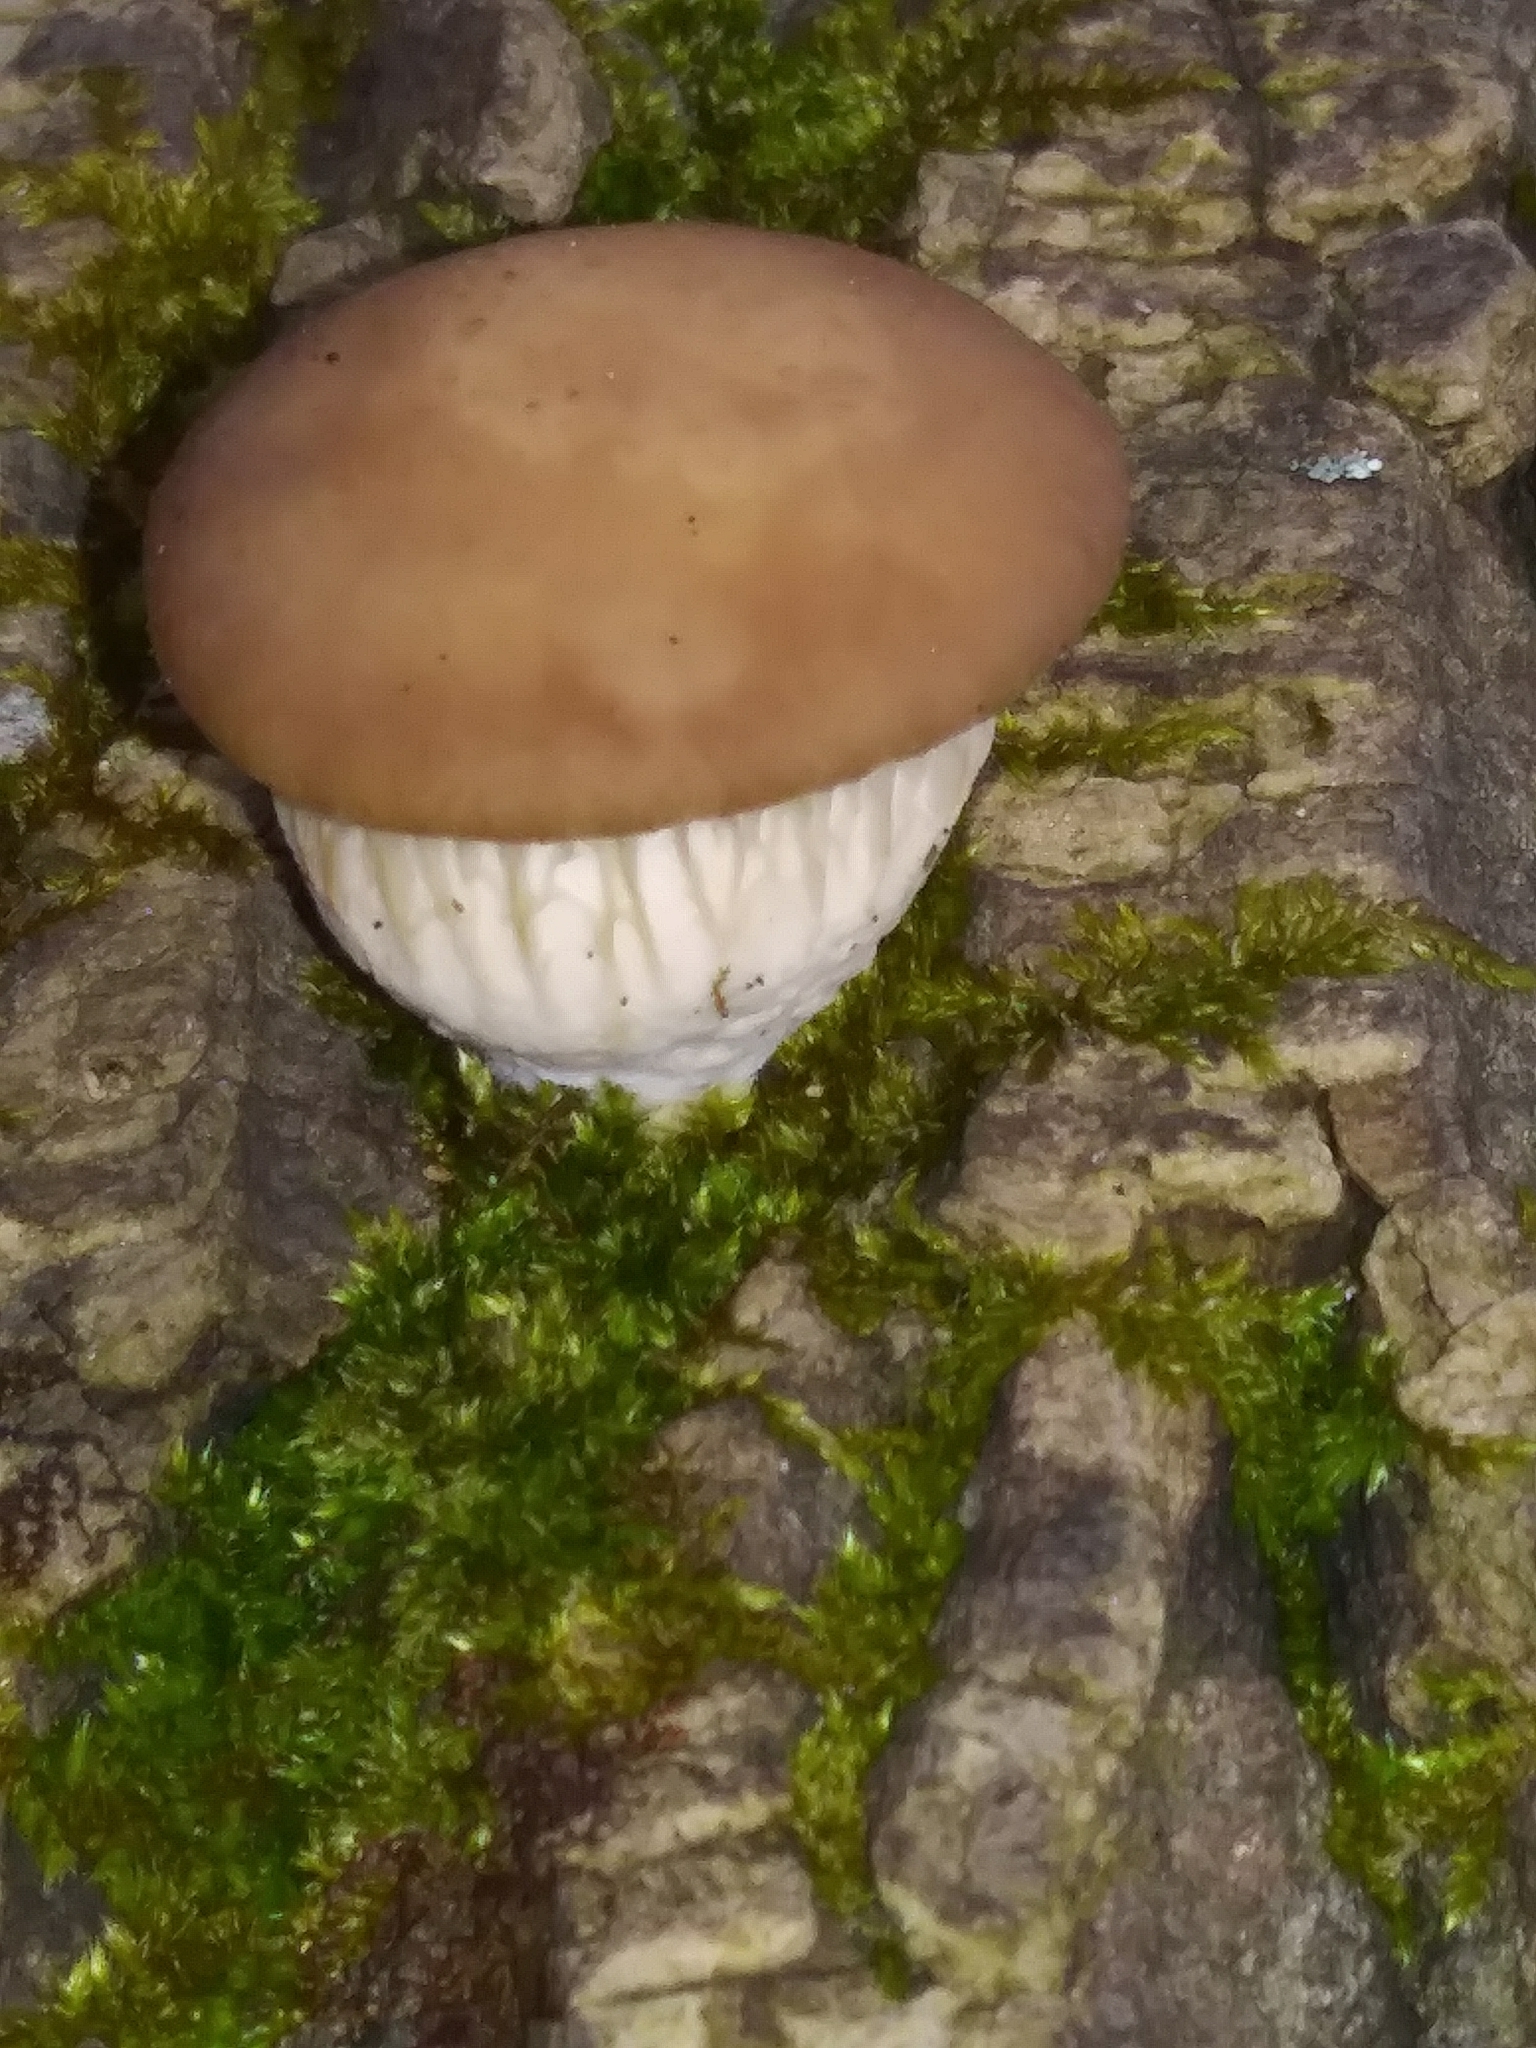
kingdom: Fungi
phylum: Basidiomycota
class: Agaricomycetes
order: Agaricales
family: Pleurotaceae
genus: Pleurotus
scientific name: Pleurotus ostreatus
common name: Oyster mushroom
